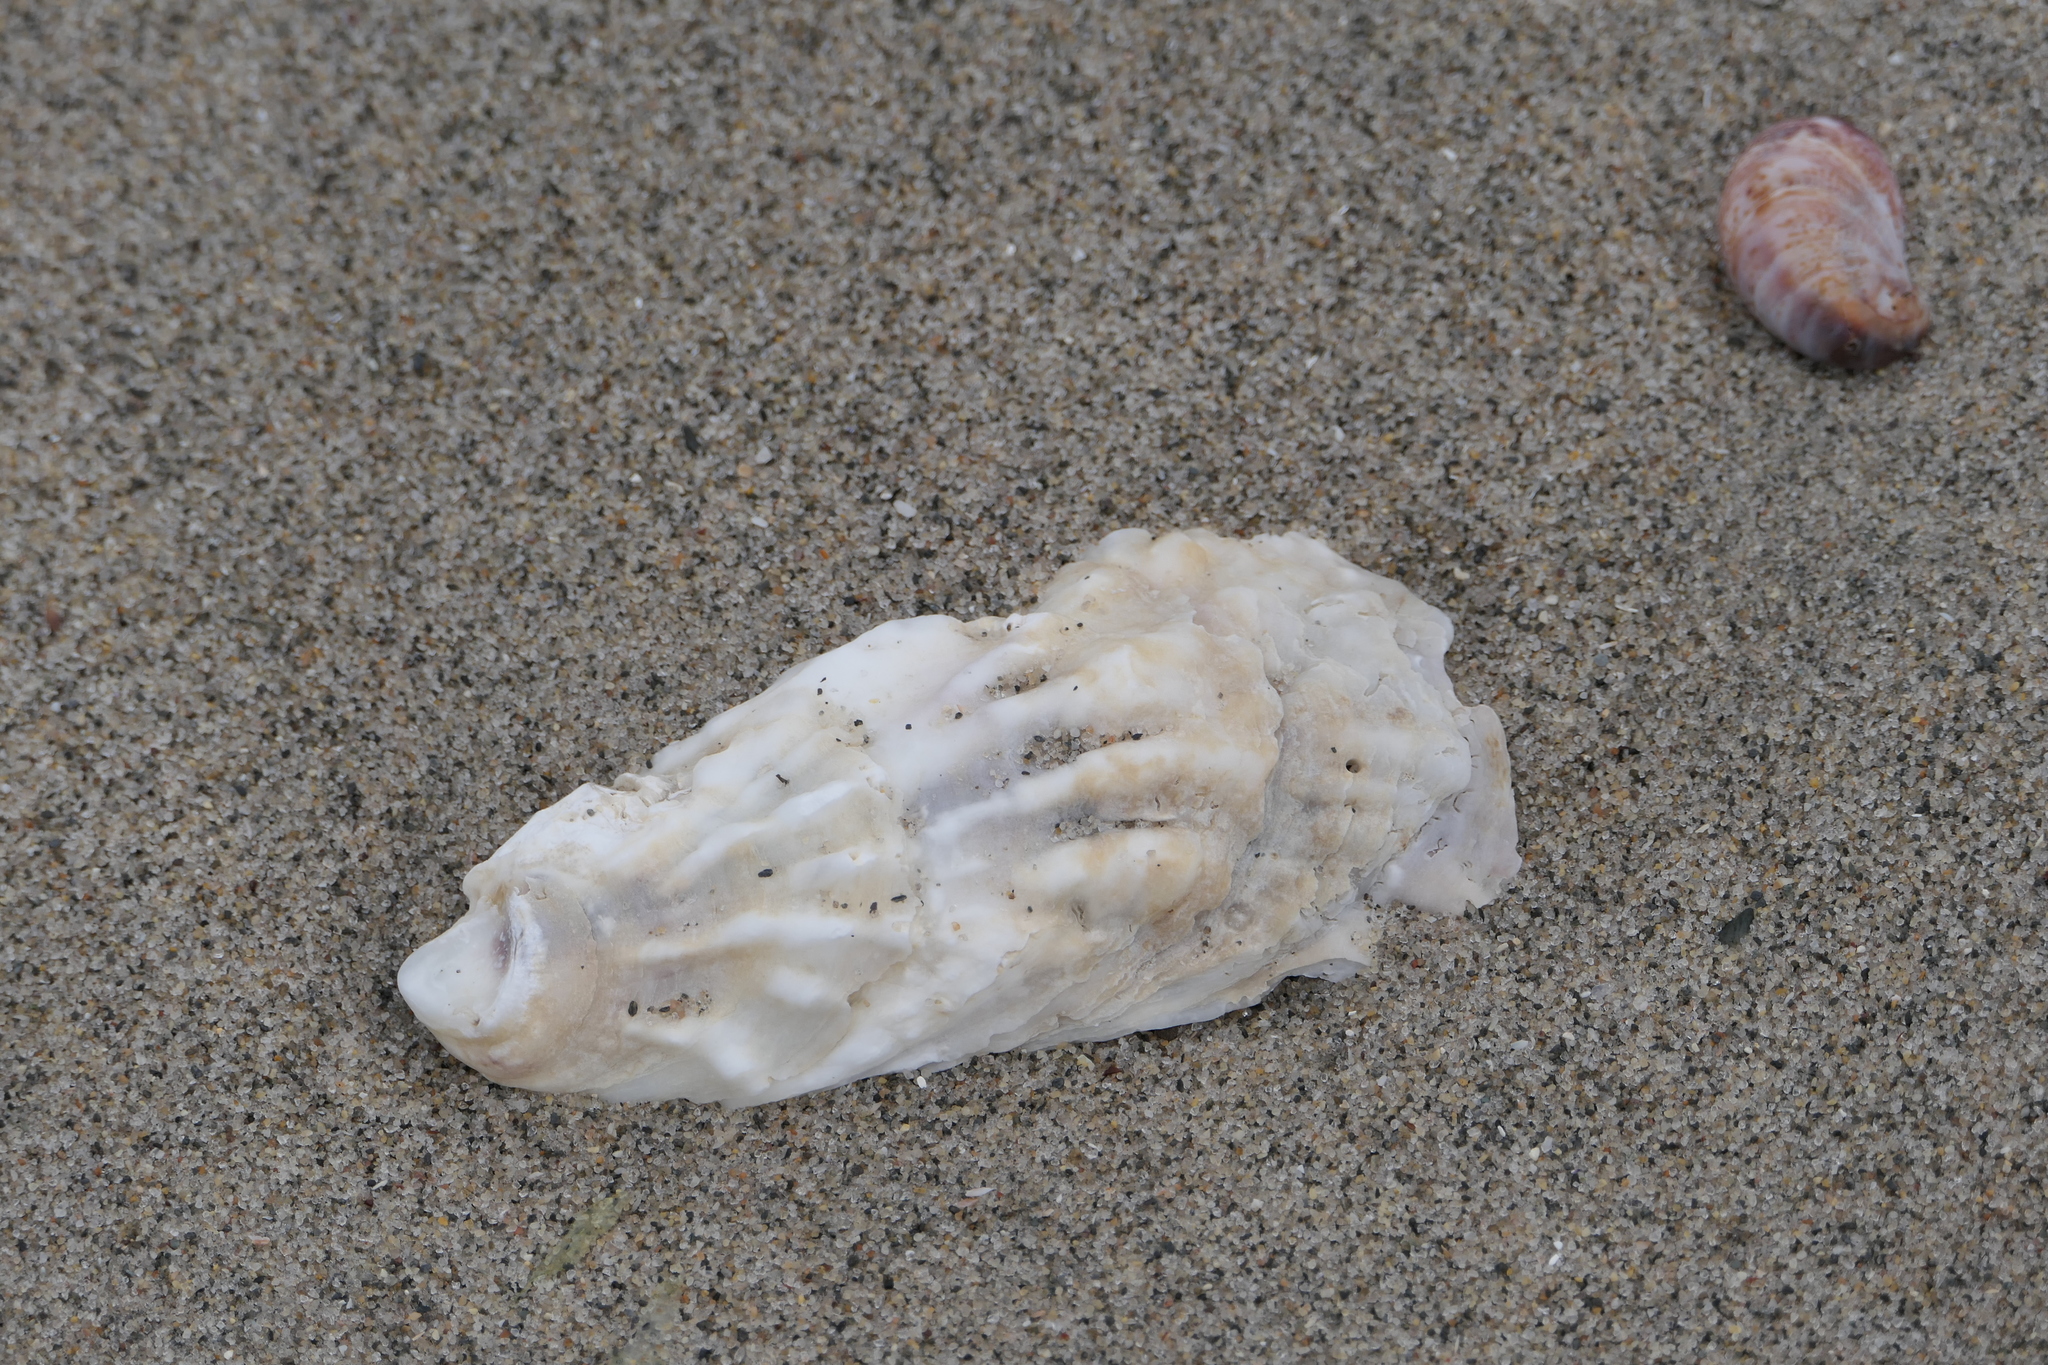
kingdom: Animalia
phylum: Mollusca
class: Bivalvia
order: Ostreida
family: Ostreidae
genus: Crassostrea
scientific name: Crassostrea virginica
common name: American oyster
